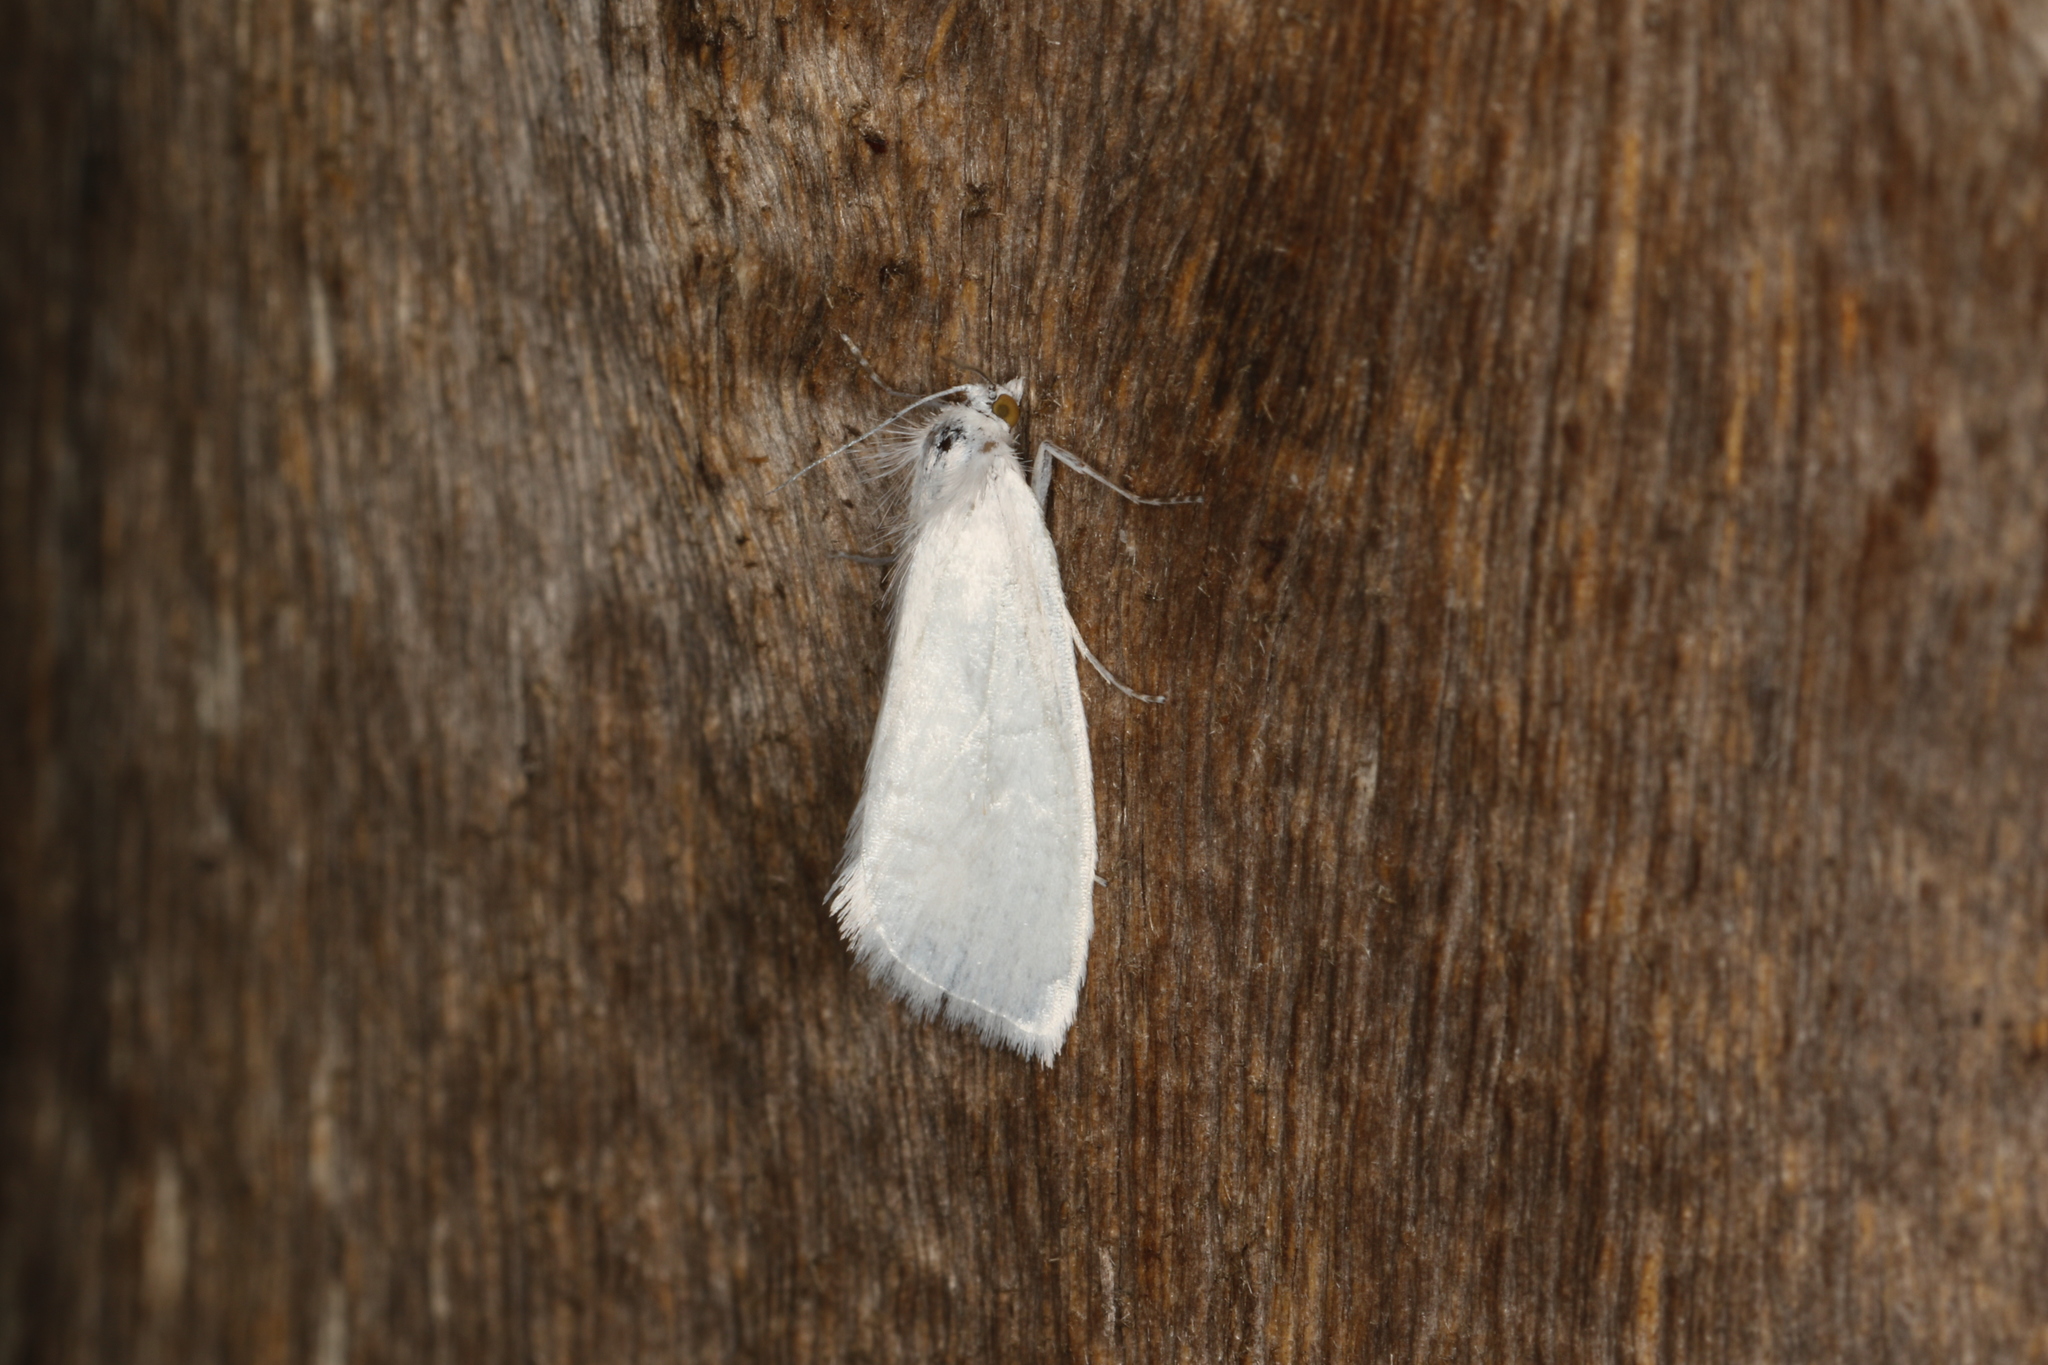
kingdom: Animalia
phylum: Arthropoda
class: Insecta
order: Lepidoptera
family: Crambidae
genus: Tipanaea
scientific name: Tipanaea patulella
